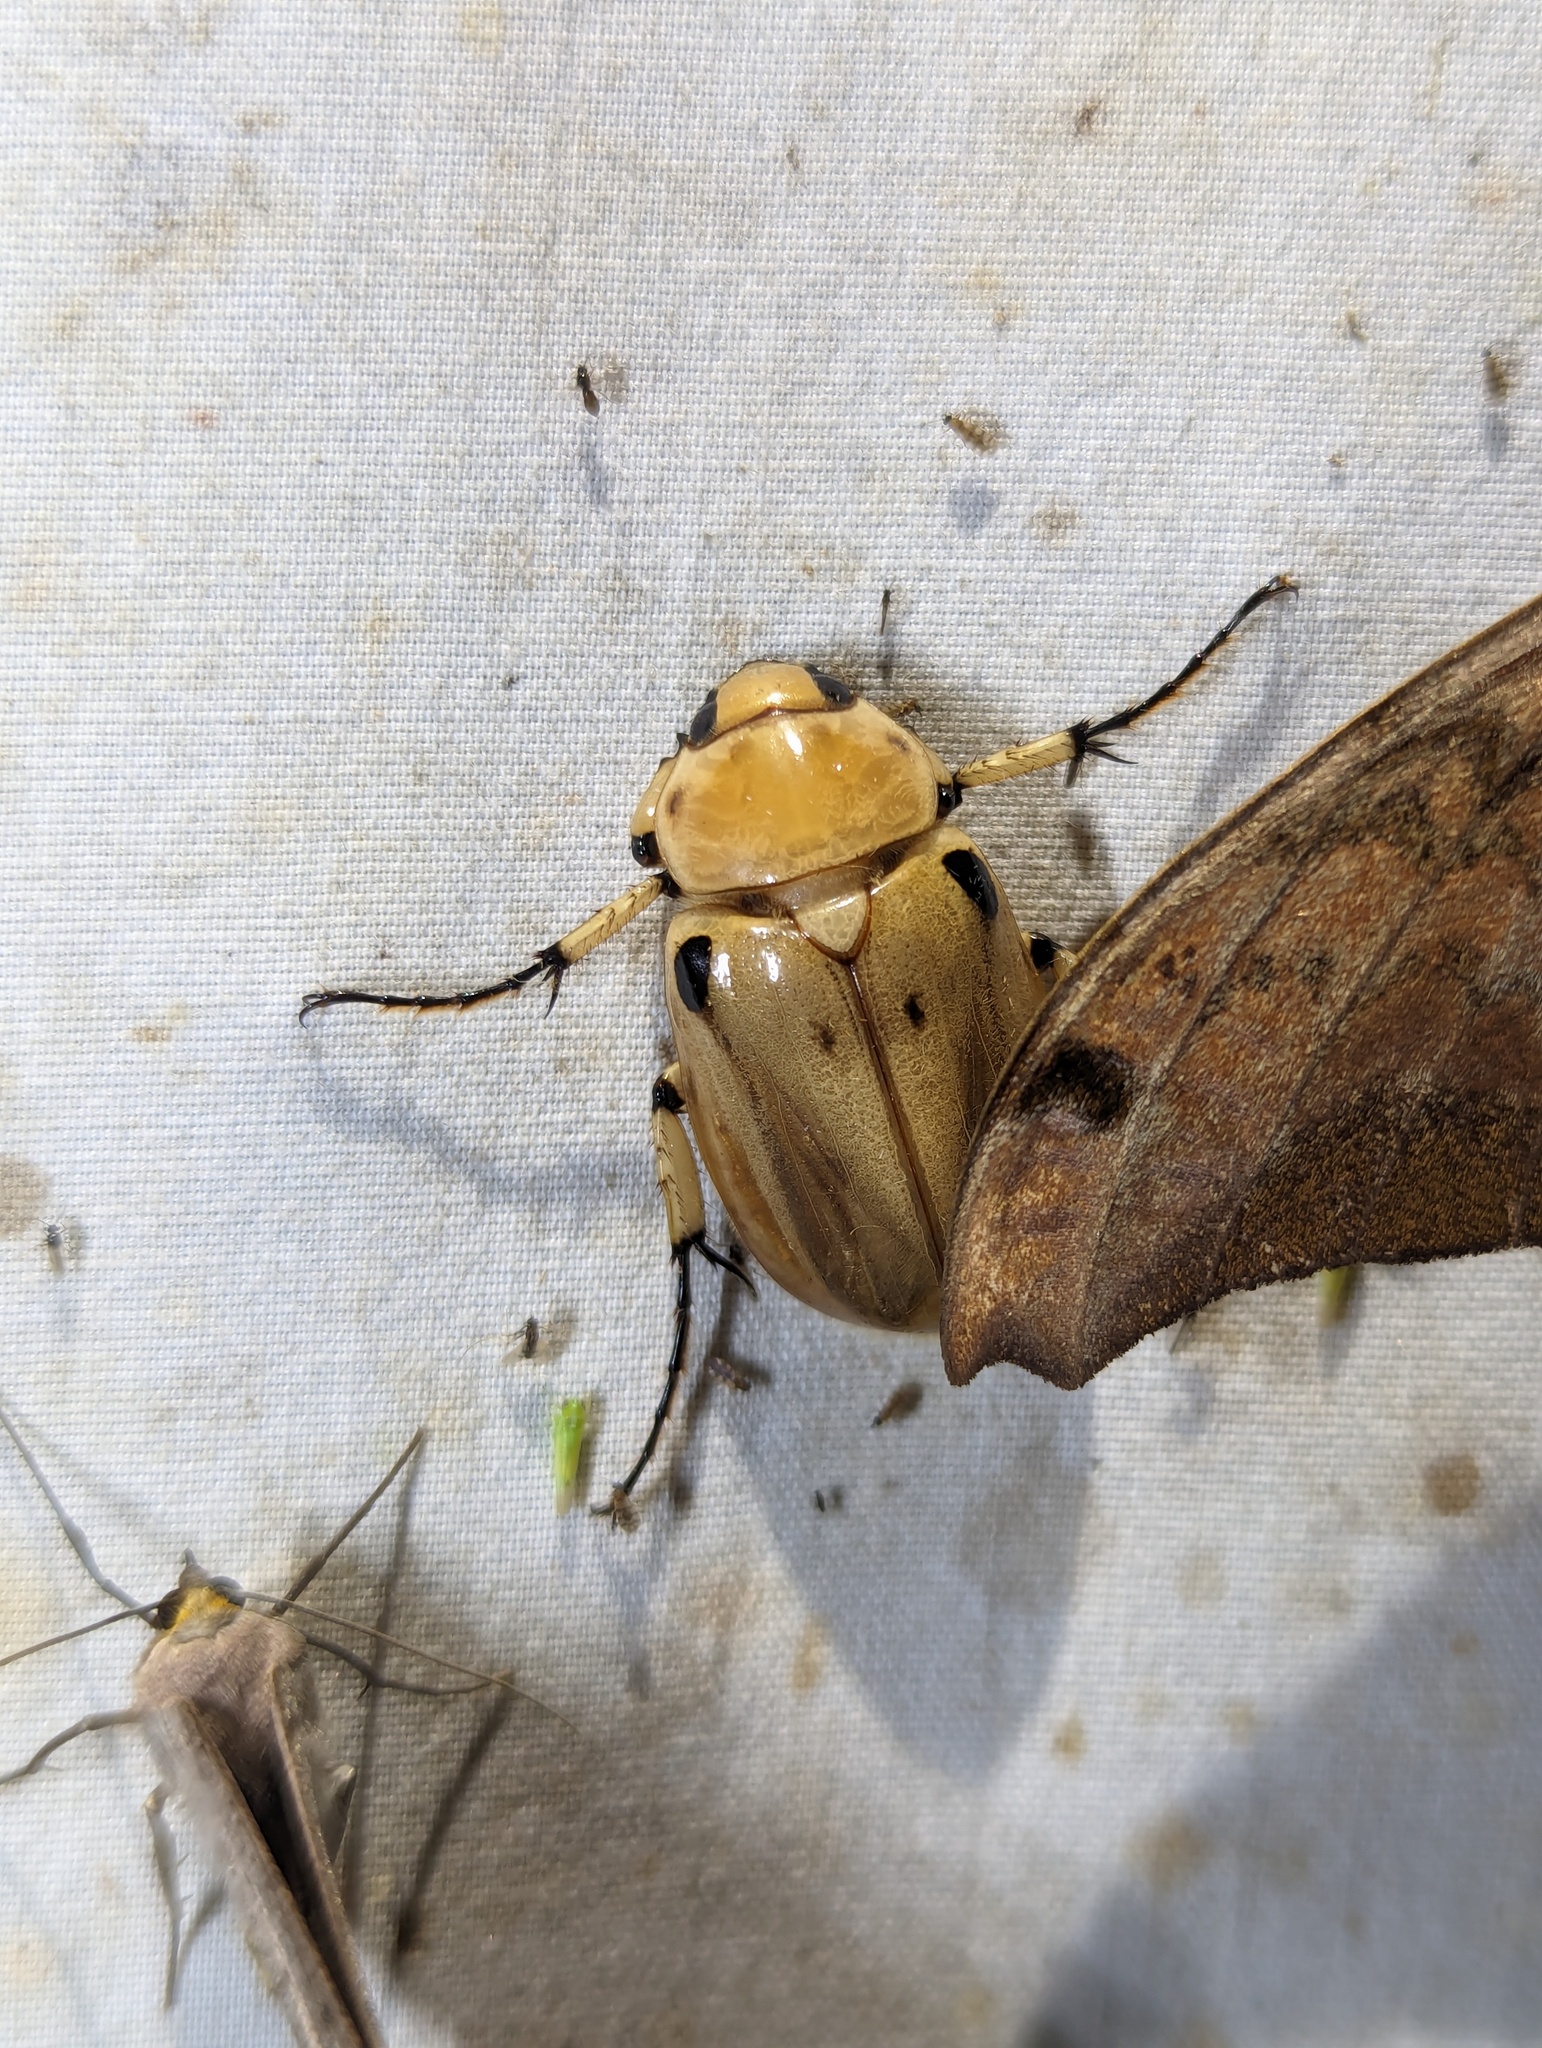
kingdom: Animalia
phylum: Arthropoda
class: Insecta
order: Coleoptera
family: Scarabaeidae
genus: Ancognatha
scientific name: Ancognatha vulgaris
